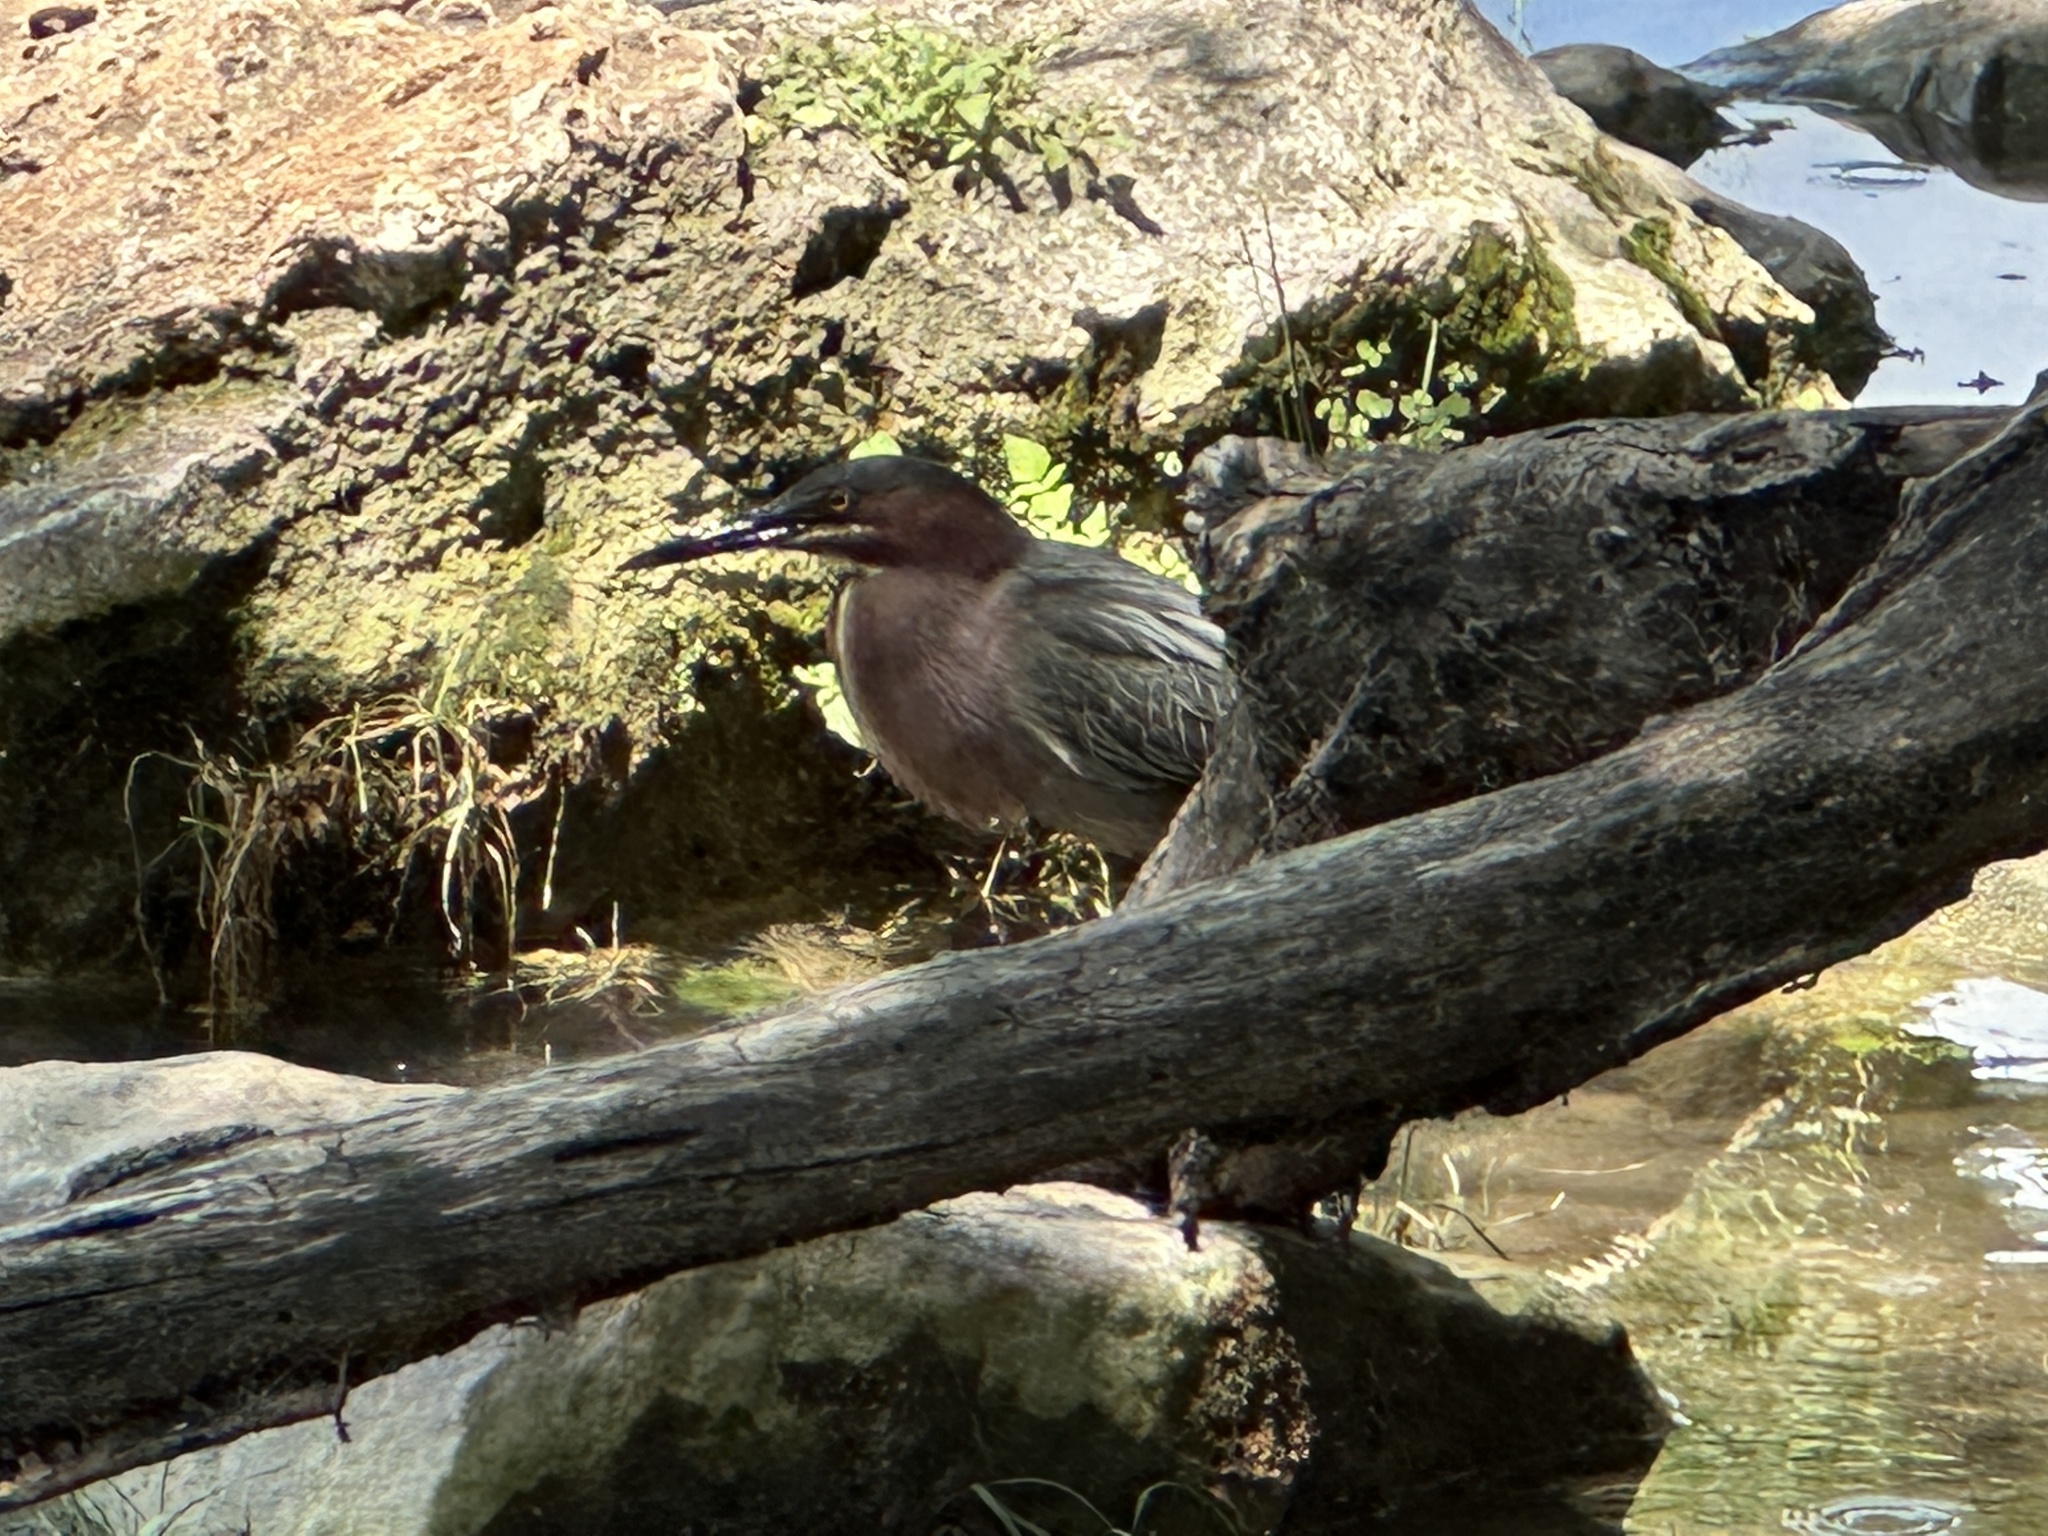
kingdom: Animalia
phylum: Chordata
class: Aves
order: Pelecaniformes
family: Ardeidae
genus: Butorides
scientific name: Butorides virescens
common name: Green heron
